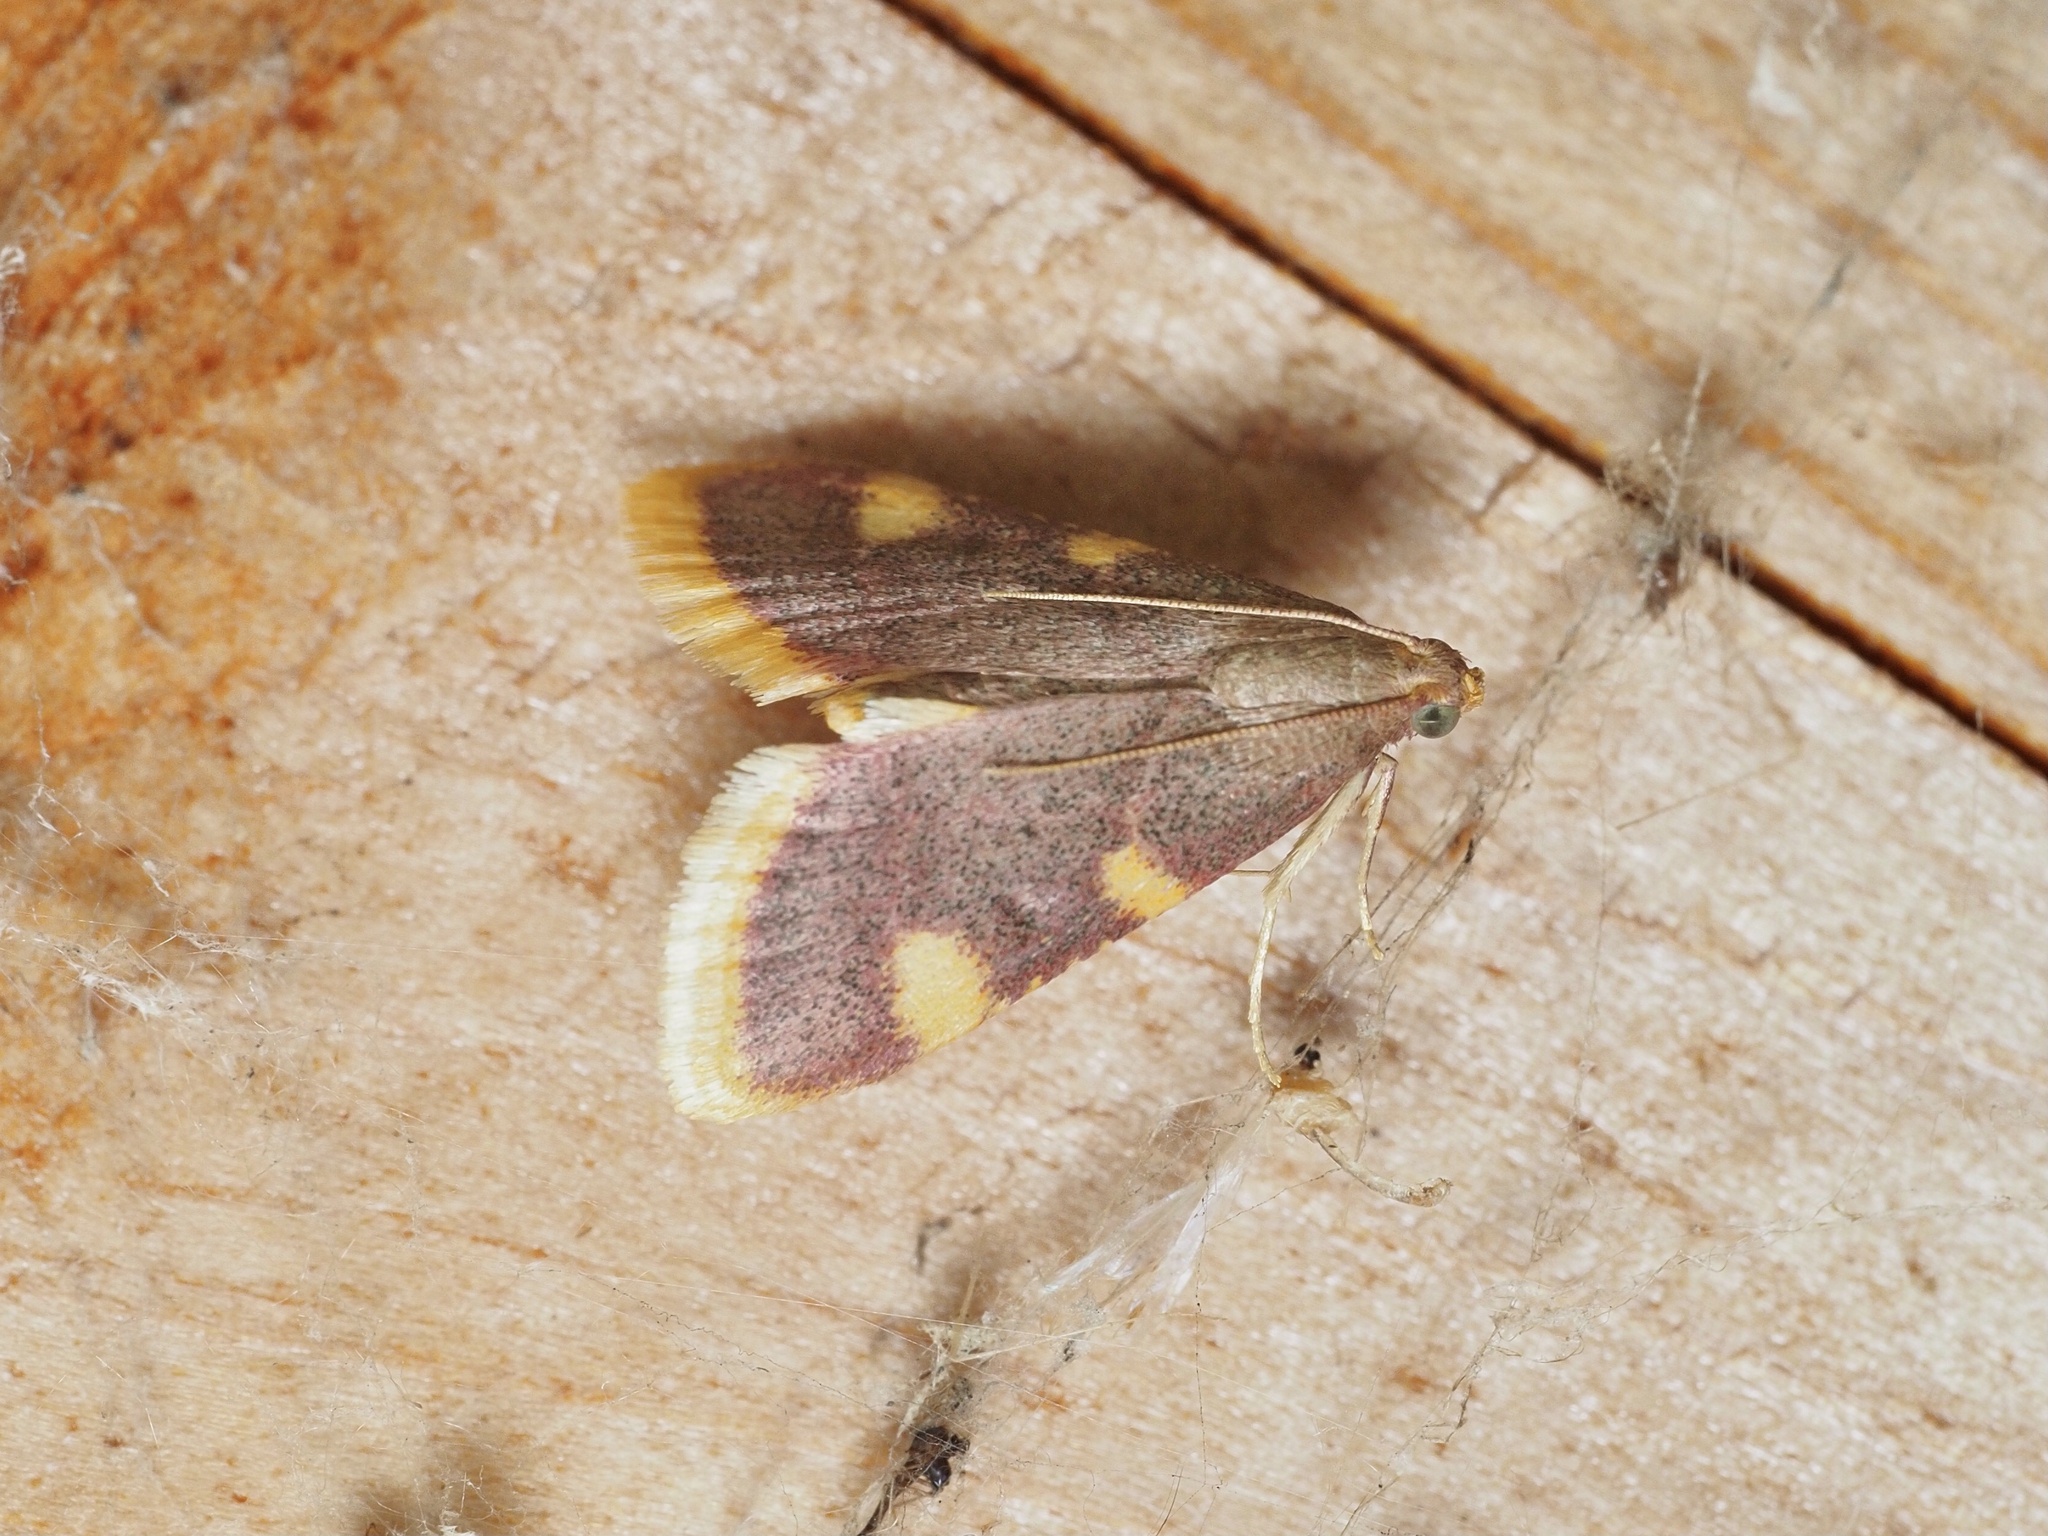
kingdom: Animalia
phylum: Arthropoda
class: Insecta
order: Lepidoptera
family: Pyralidae
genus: Hypsopygia
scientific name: Hypsopygia costalis
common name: Gold triangle
